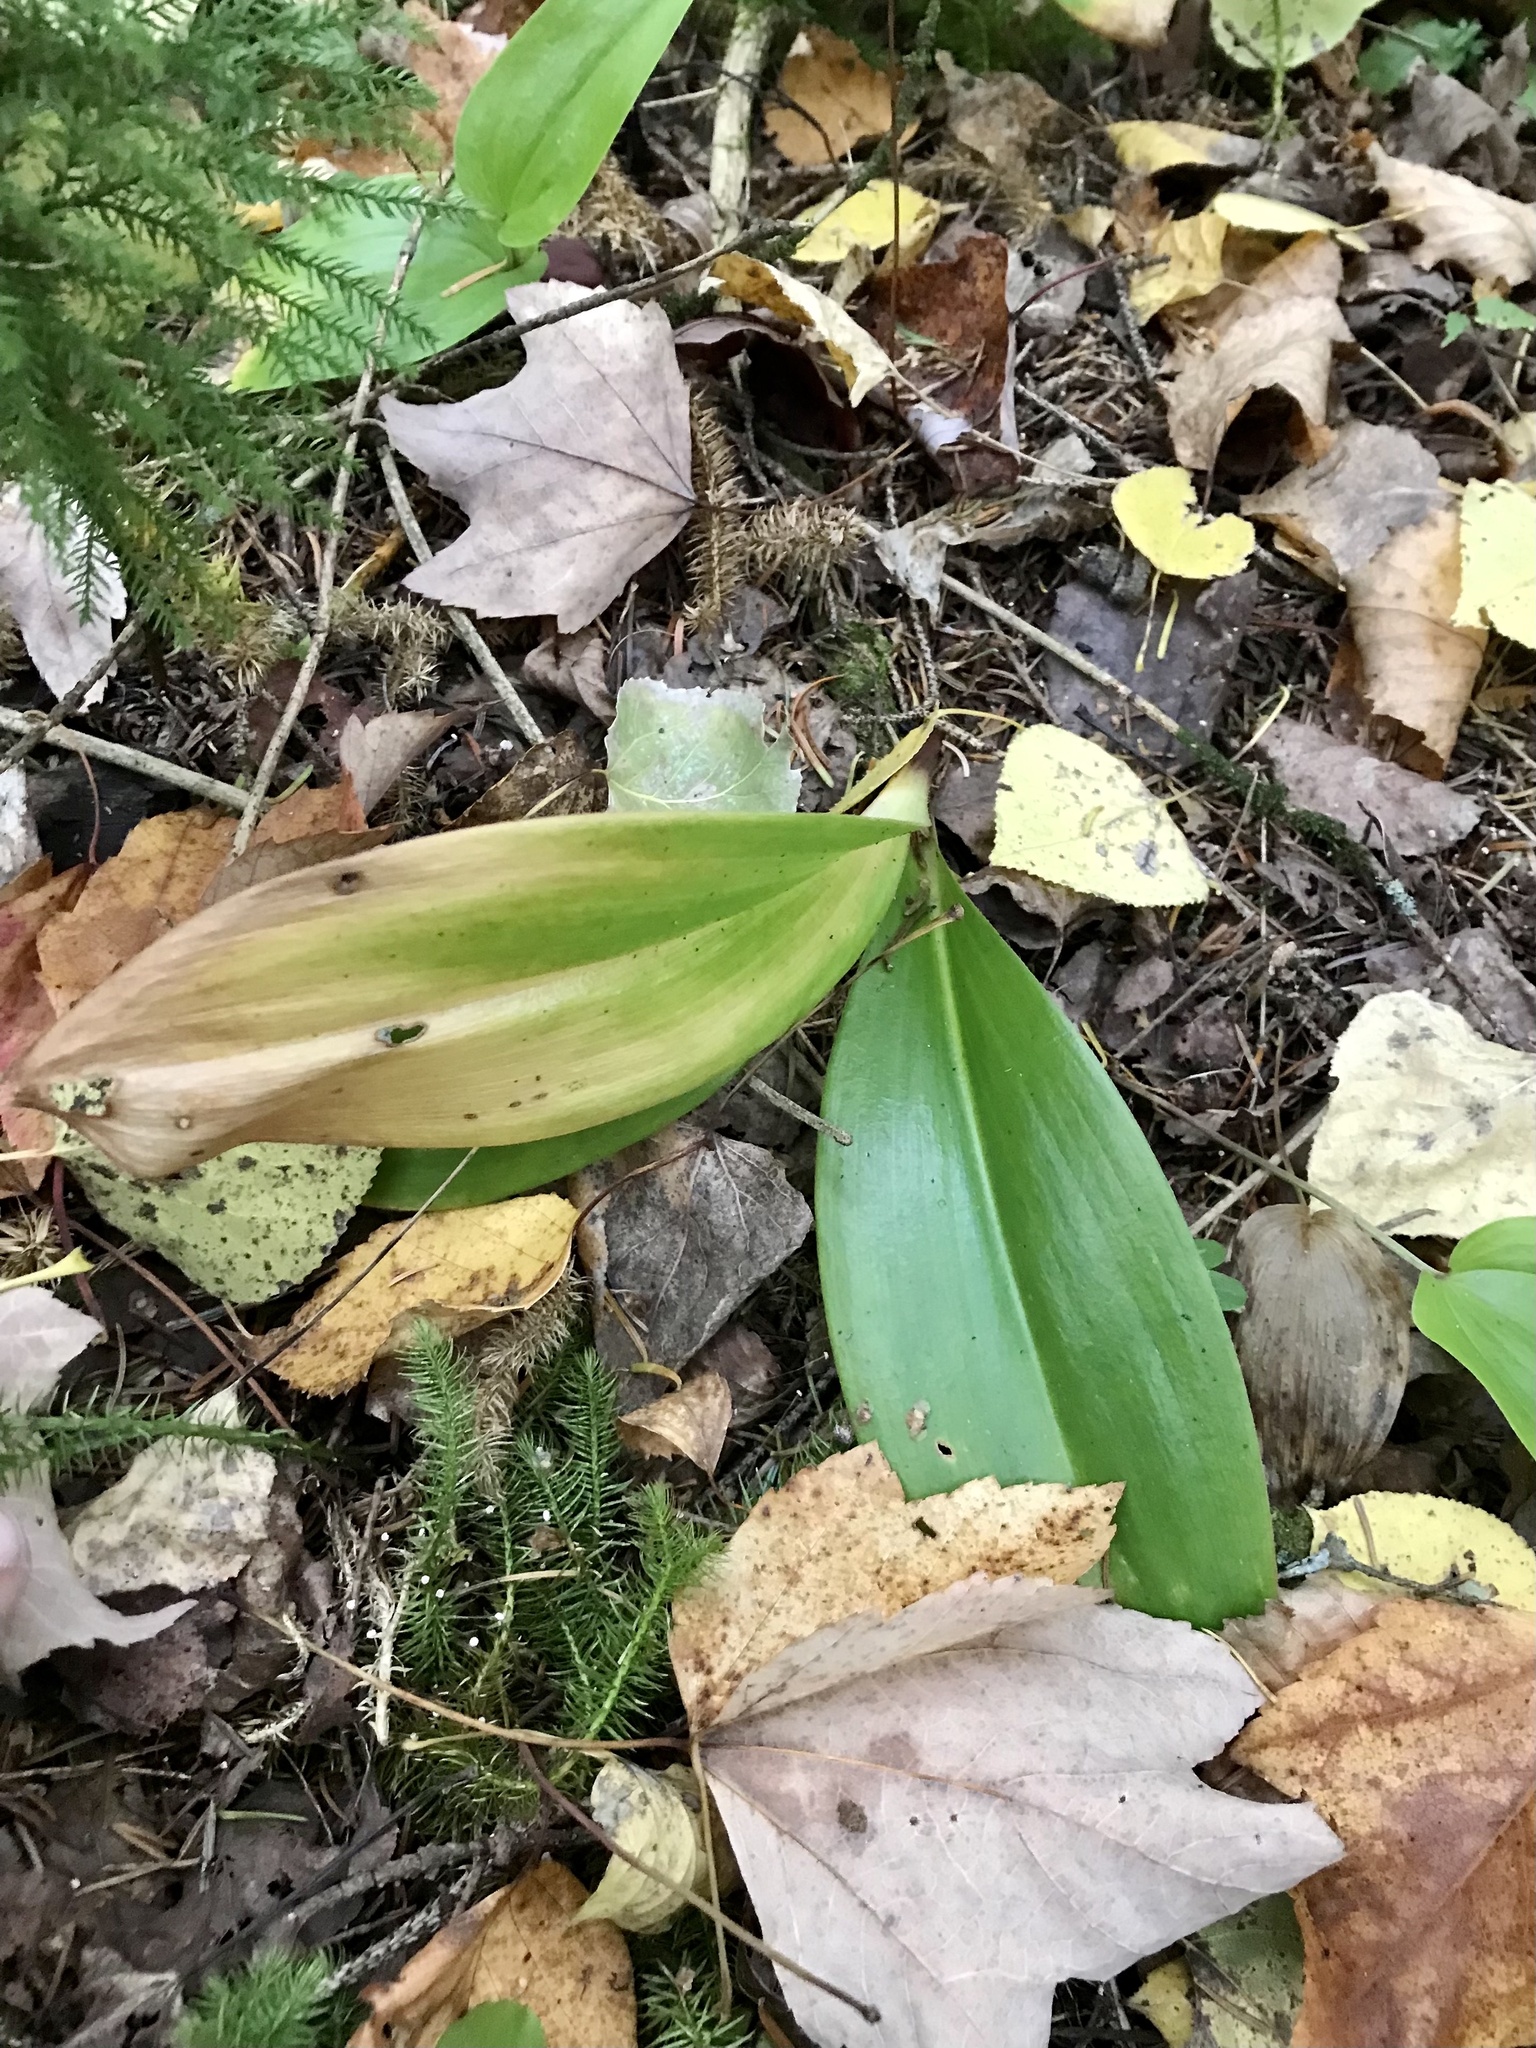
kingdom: Plantae
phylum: Tracheophyta
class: Liliopsida
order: Liliales
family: Liliaceae
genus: Clintonia
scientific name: Clintonia borealis
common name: Yellow clintonia
